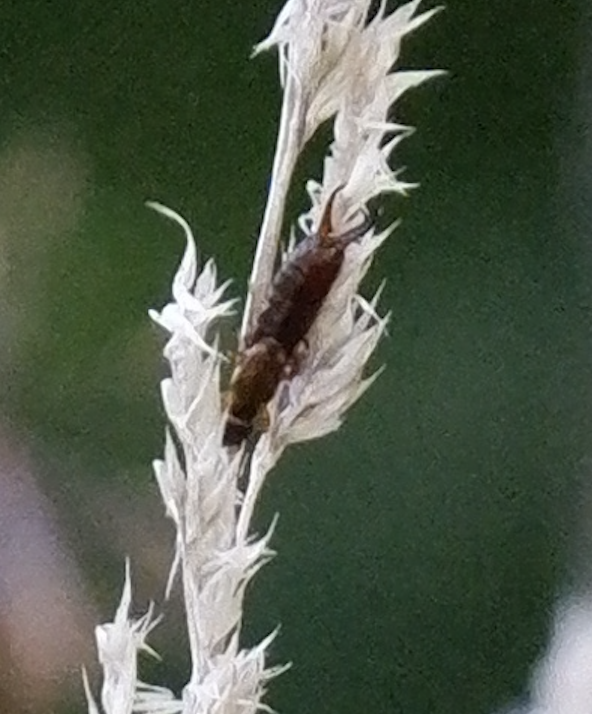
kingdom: Animalia
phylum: Arthropoda
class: Insecta
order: Dermaptera
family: Forficulidae
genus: Forficula
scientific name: Forficula
